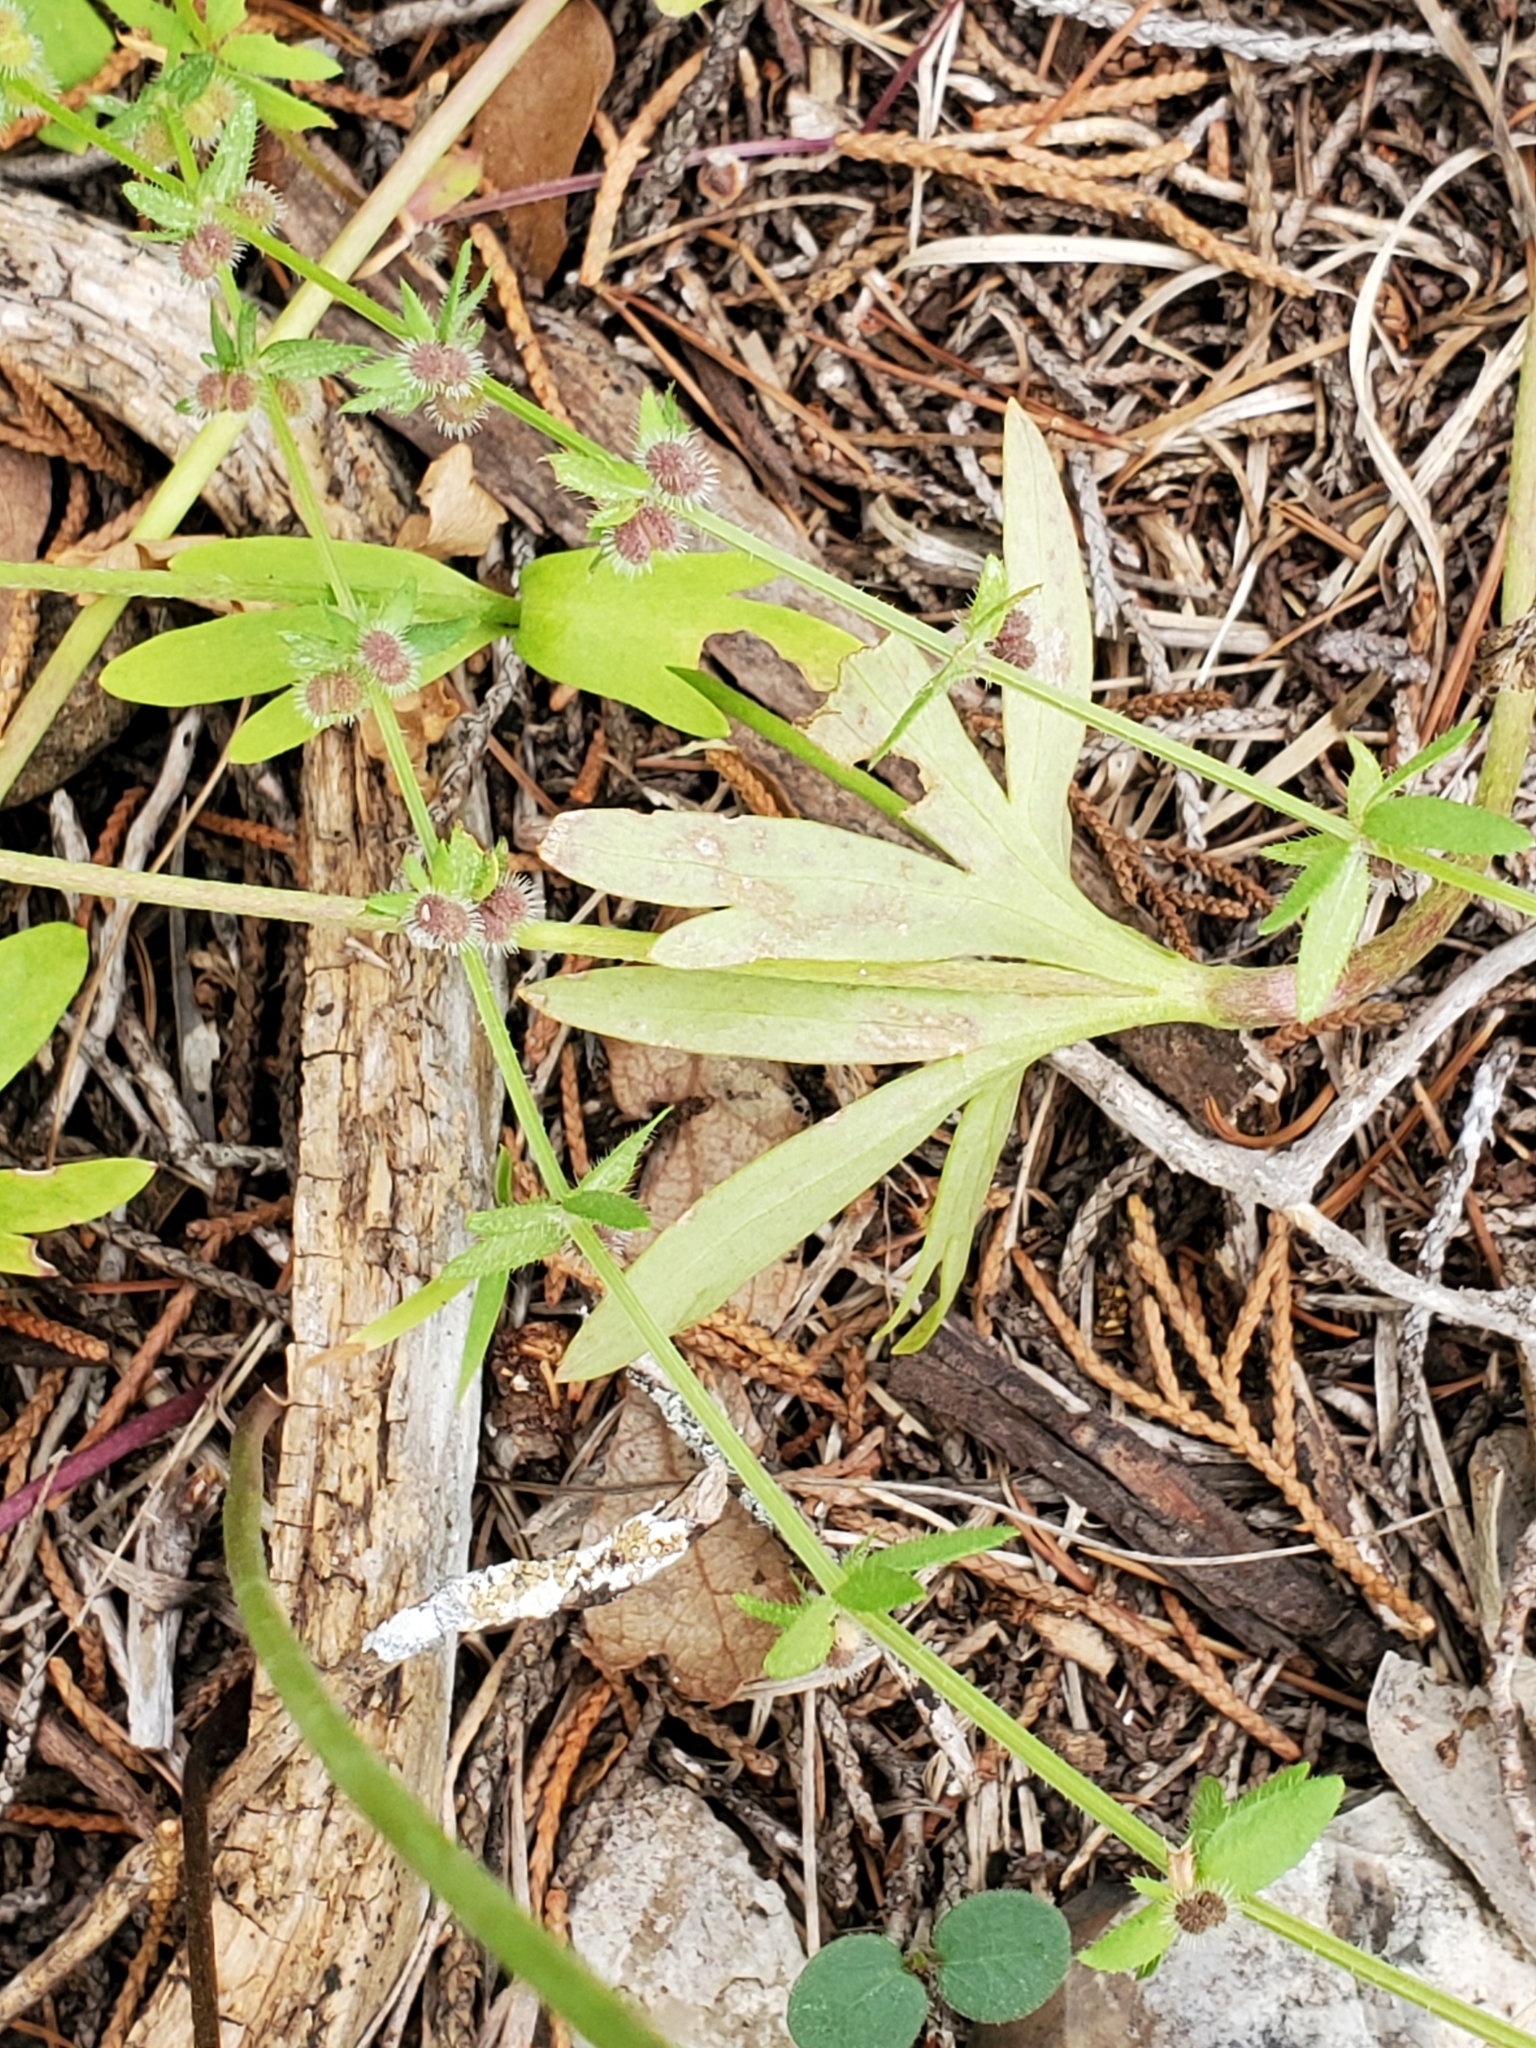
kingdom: Plantae
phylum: Tracheophyta
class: Magnoliopsida
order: Ranunculales
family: Ranunculaceae
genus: Anemone
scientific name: Anemone edwardsiana
